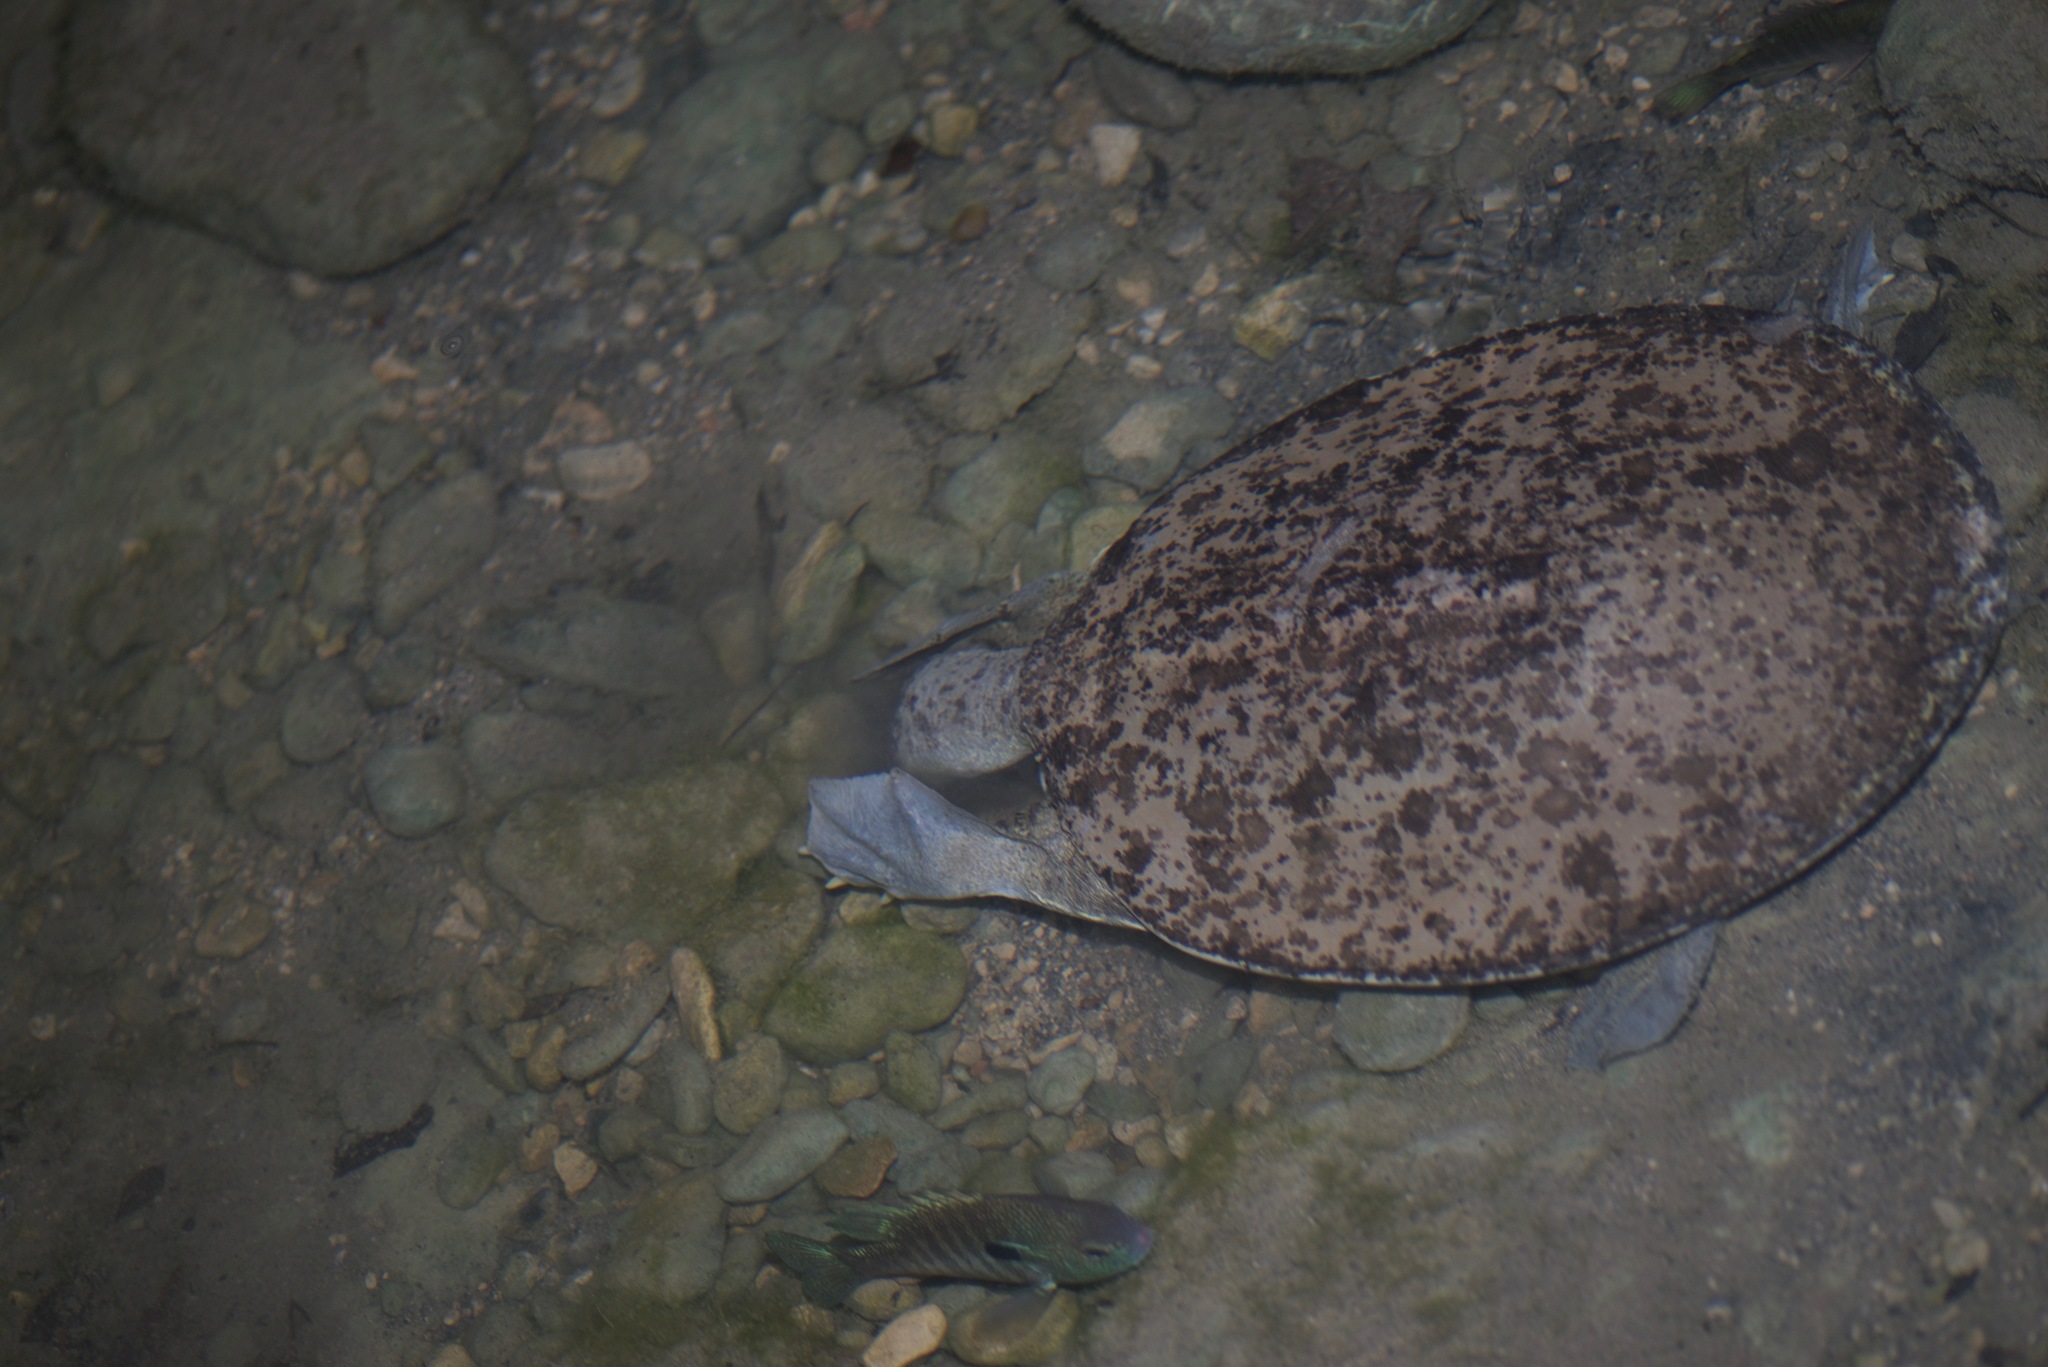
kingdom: Animalia
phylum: Chordata
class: Testudines
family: Trionychidae
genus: Apalone
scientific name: Apalone spinifera
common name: Spiny softshell turtle
